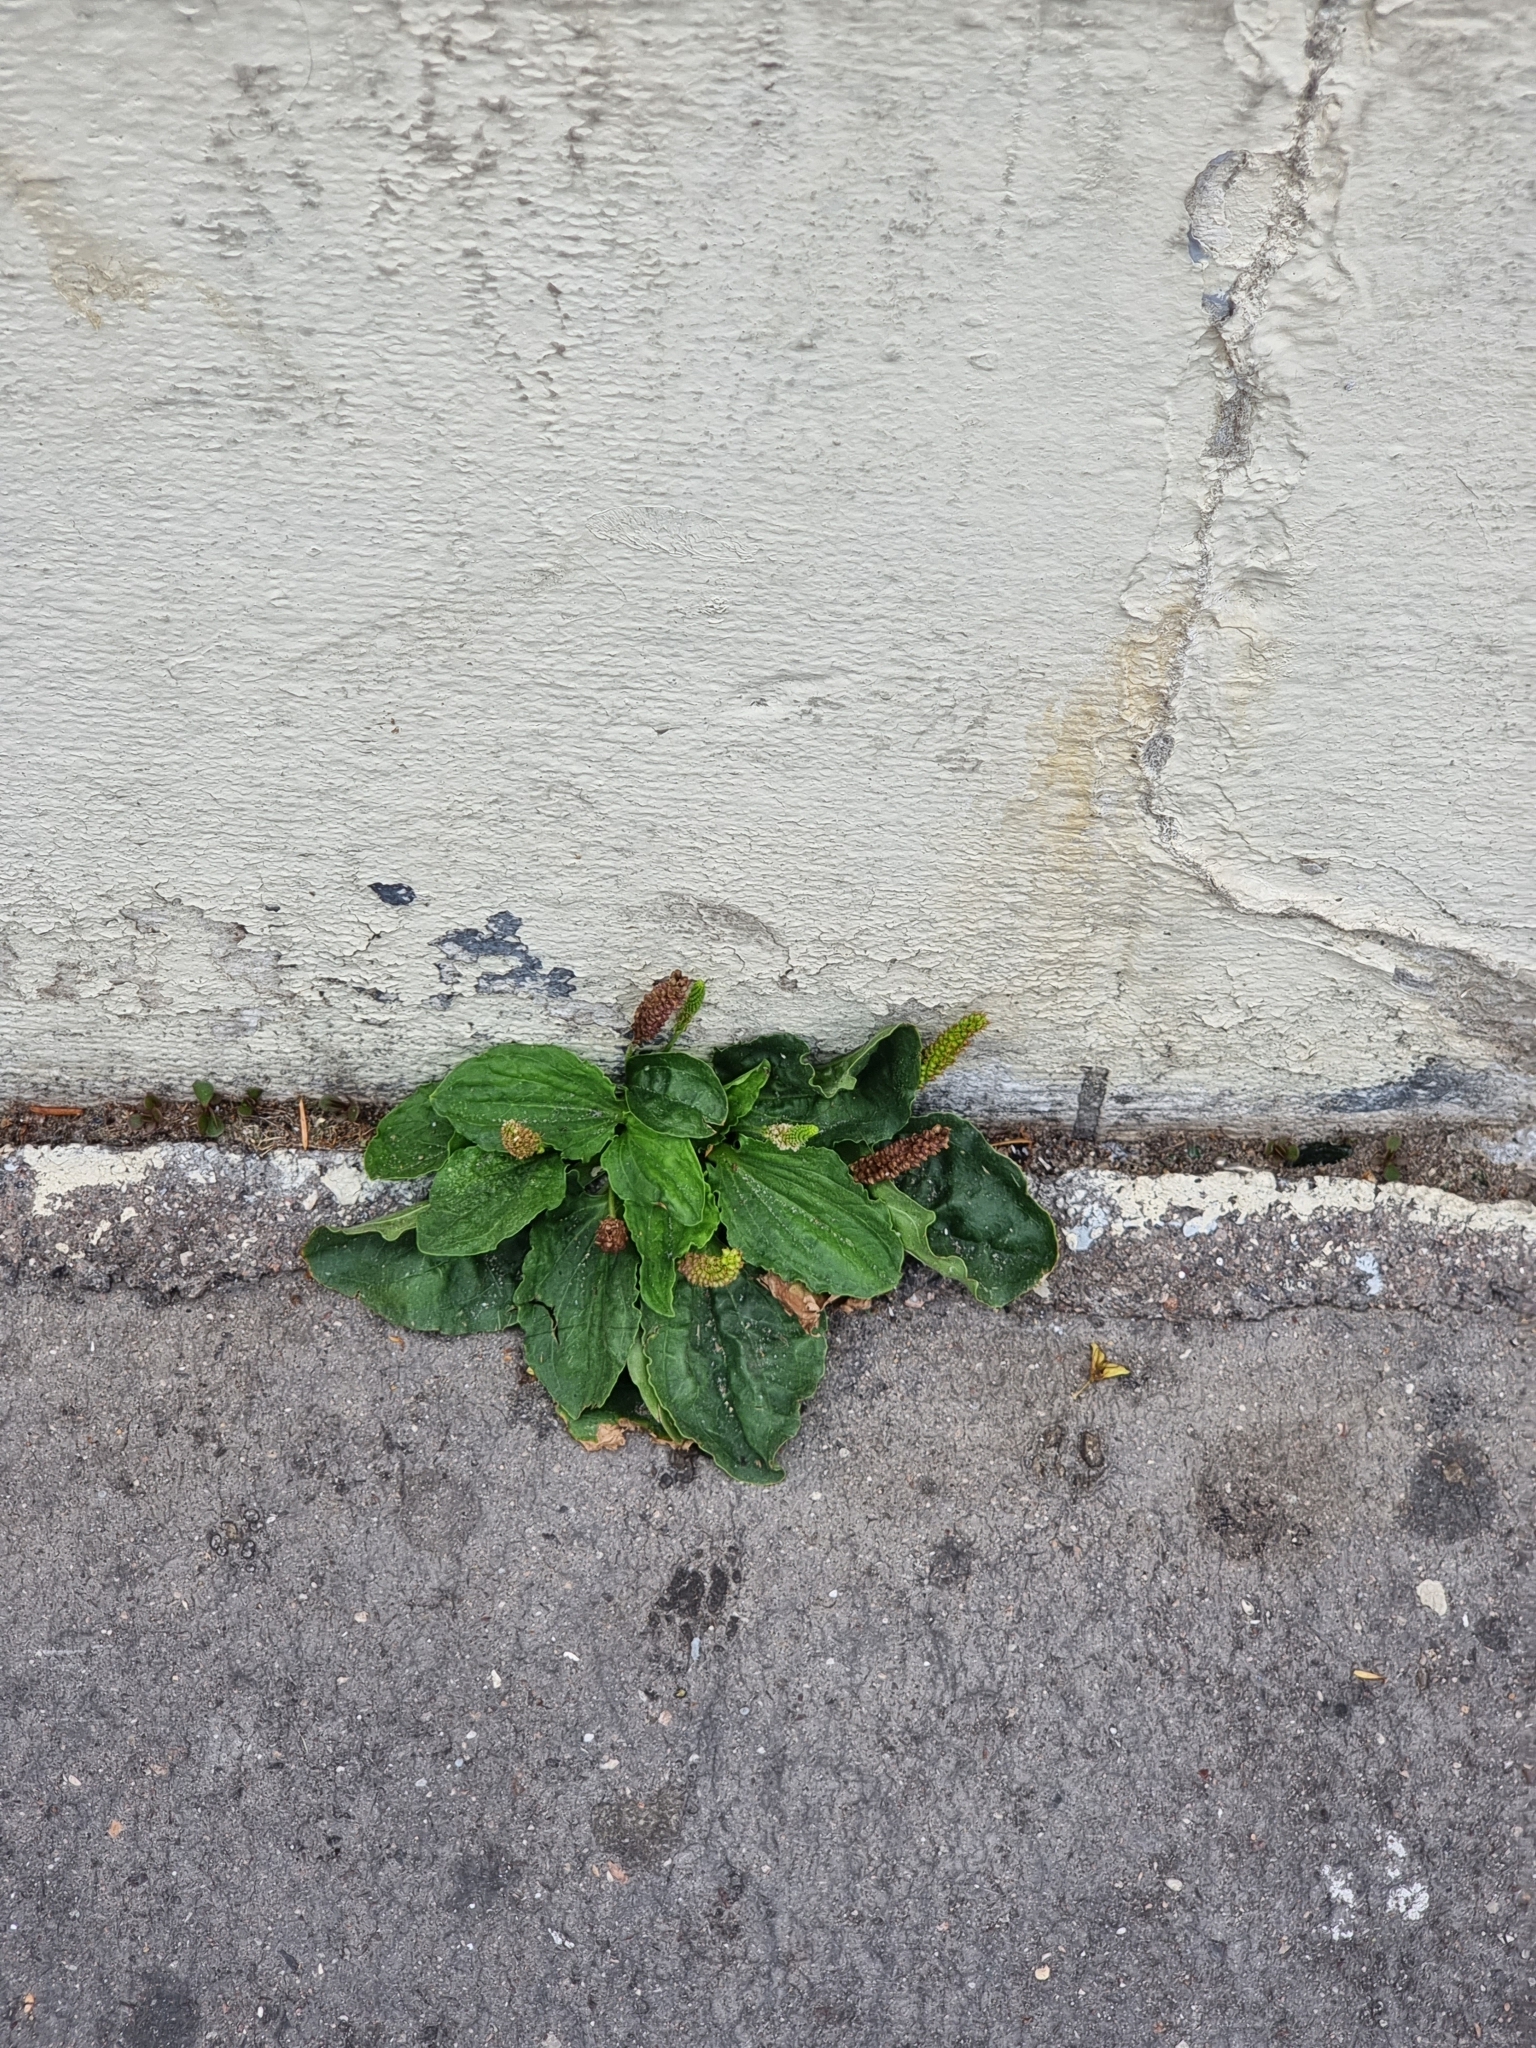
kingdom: Plantae
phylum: Tracheophyta
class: Magnoliopsida
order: Lamiales
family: Plantaginaceae
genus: Plantago
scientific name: Plantago major
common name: Common plantain
